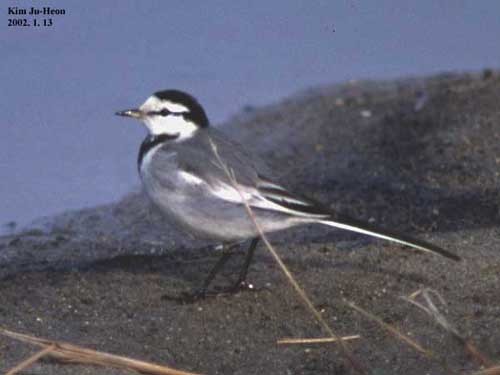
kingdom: Animalia
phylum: Chordata
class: Aves
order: Passeriformes
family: Motacillidae
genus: Motacilla
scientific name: Motacilla alba
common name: White wagtail
